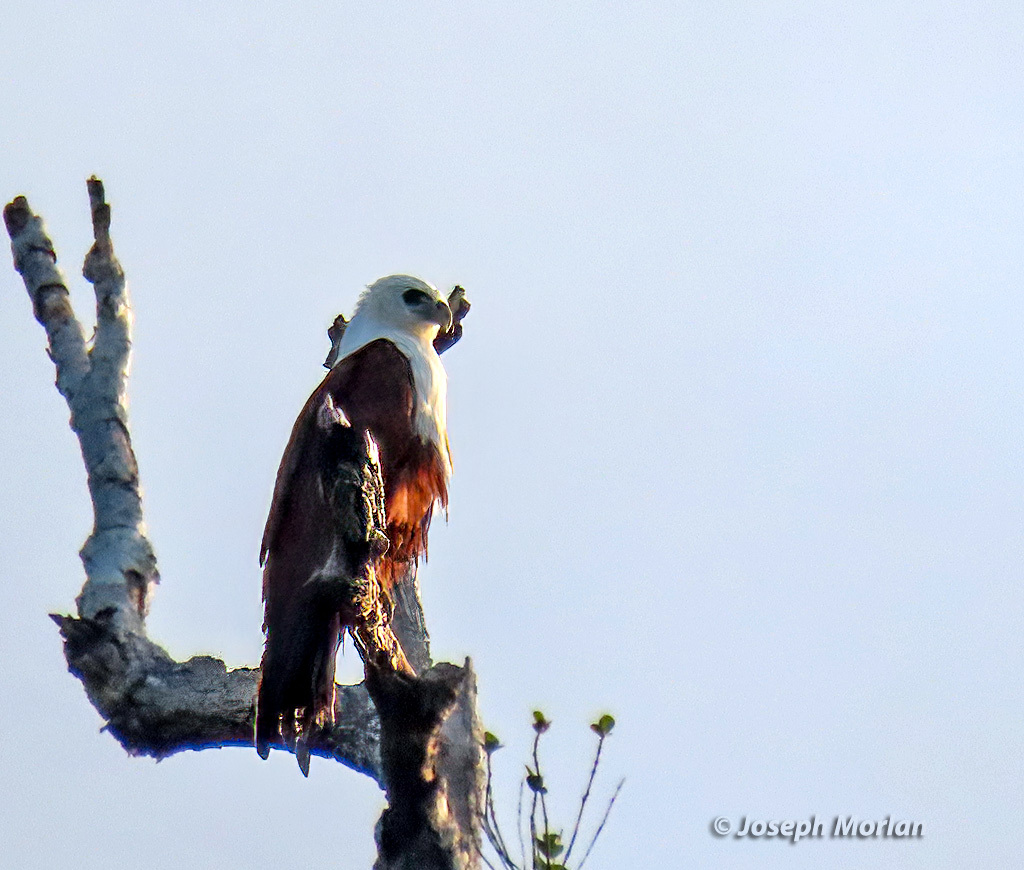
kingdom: Animalia
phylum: Chordata
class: Aves
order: Accipitriformes
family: Accipitridae
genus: Haliastur
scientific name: Haliastur indus
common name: Brahminy kite
